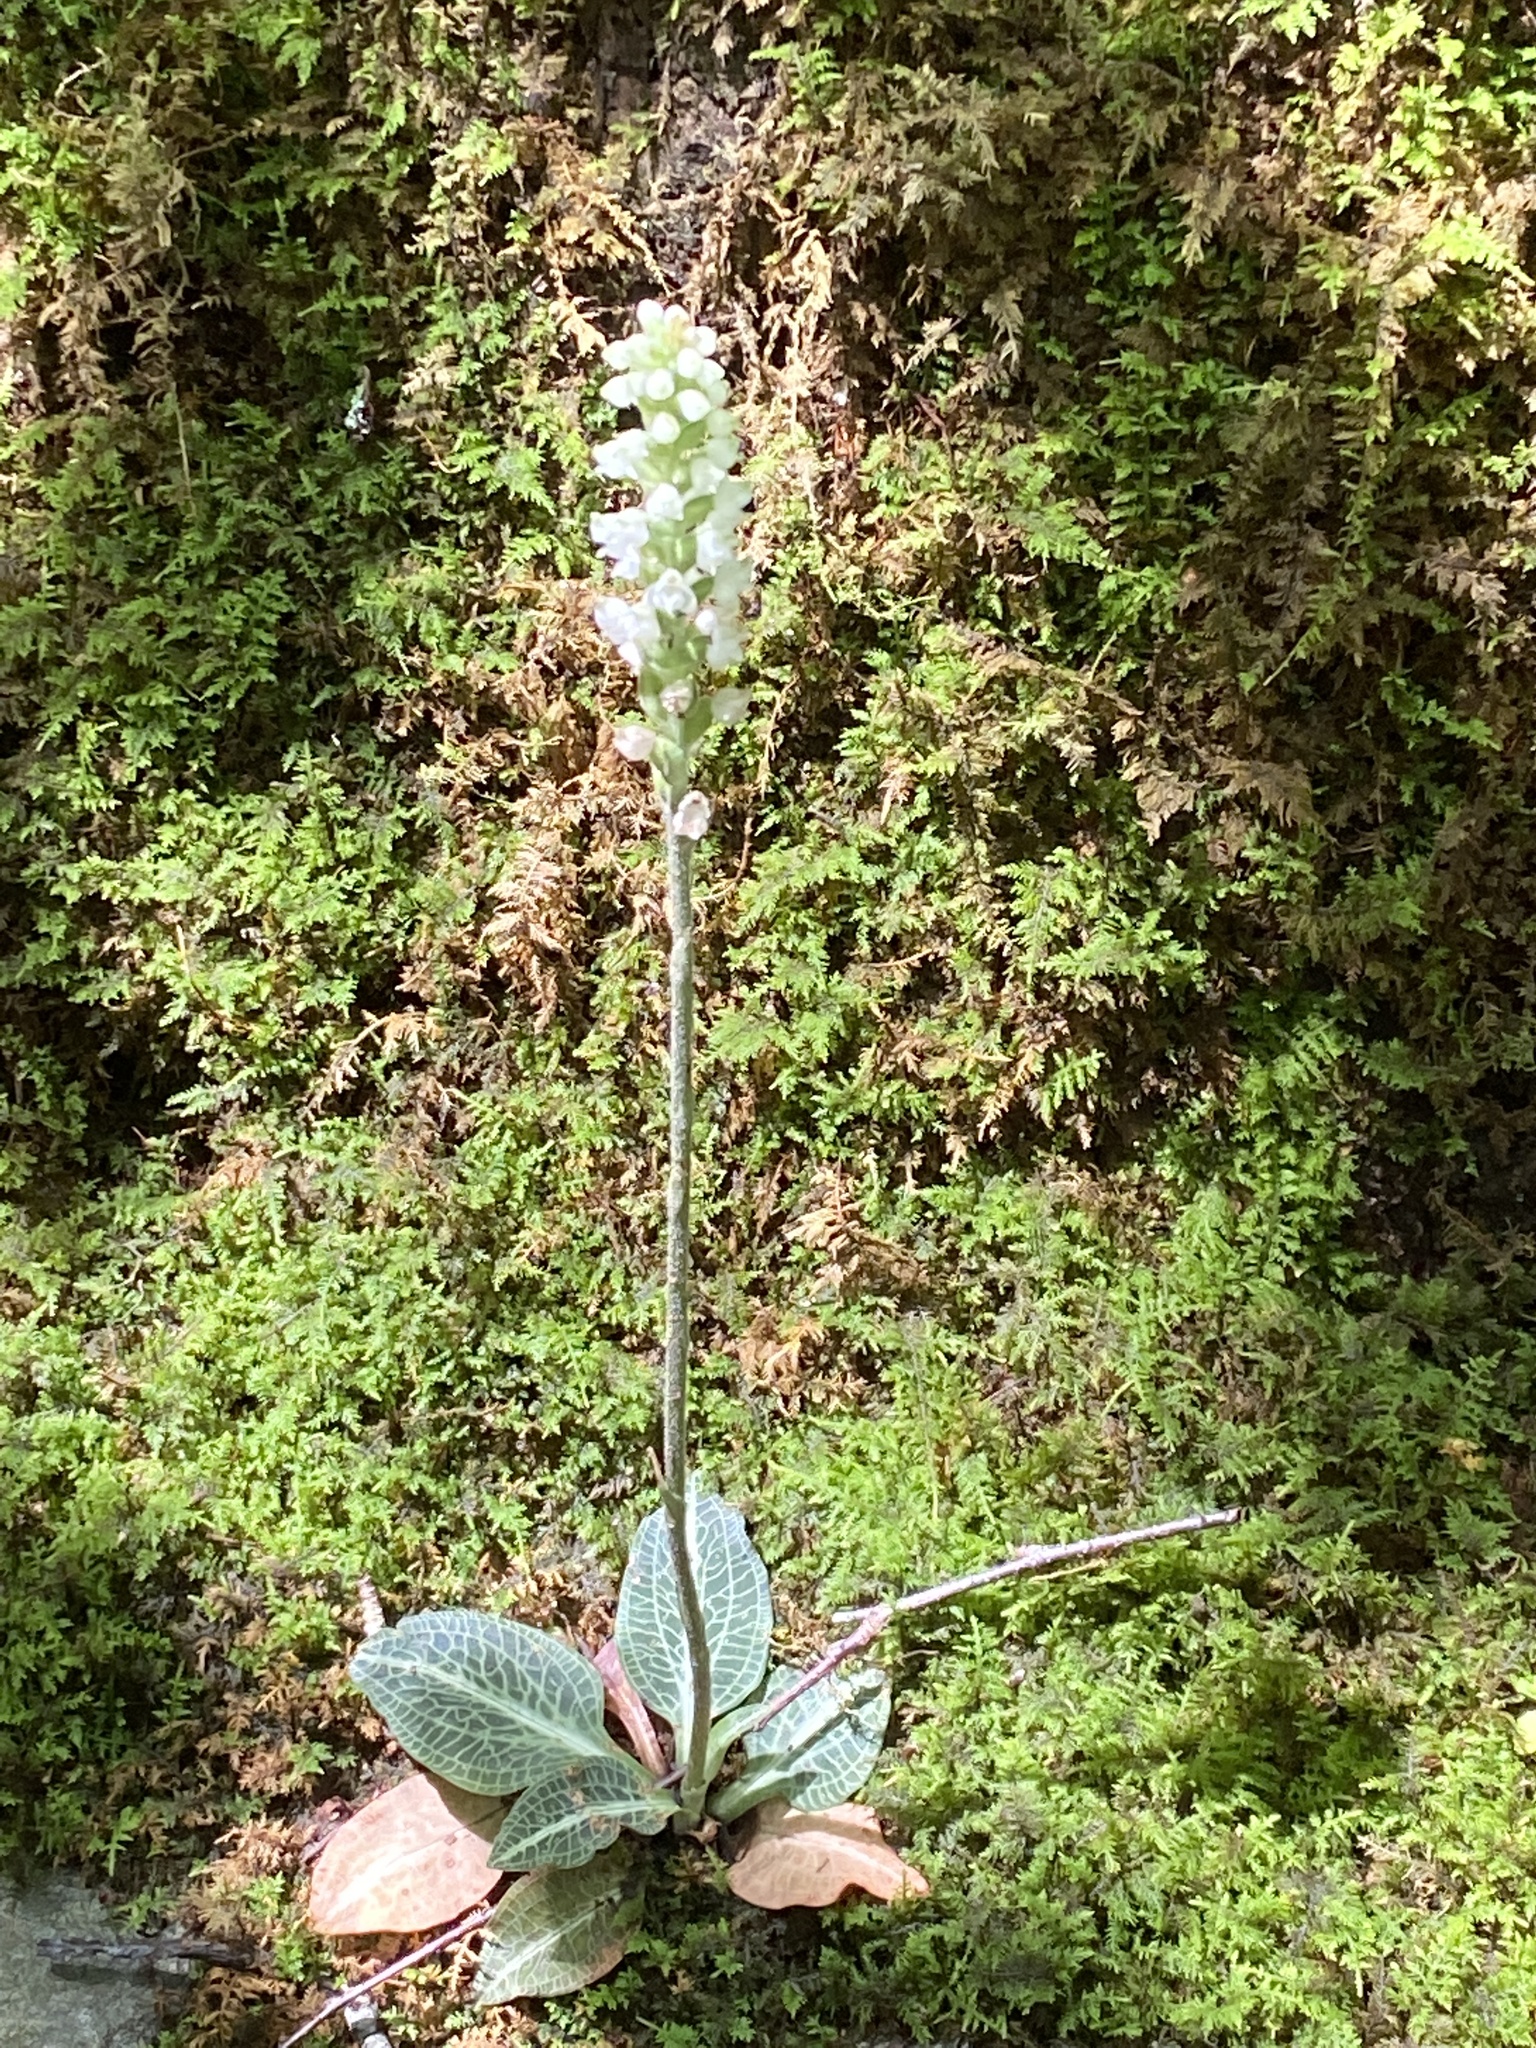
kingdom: Plantae
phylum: Tracheophyta
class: Liliopsida
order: Asparagales
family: Orchidaceae
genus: Goodyera
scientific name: Goodyera pubescens
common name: Downy rattlesnake-plantain
